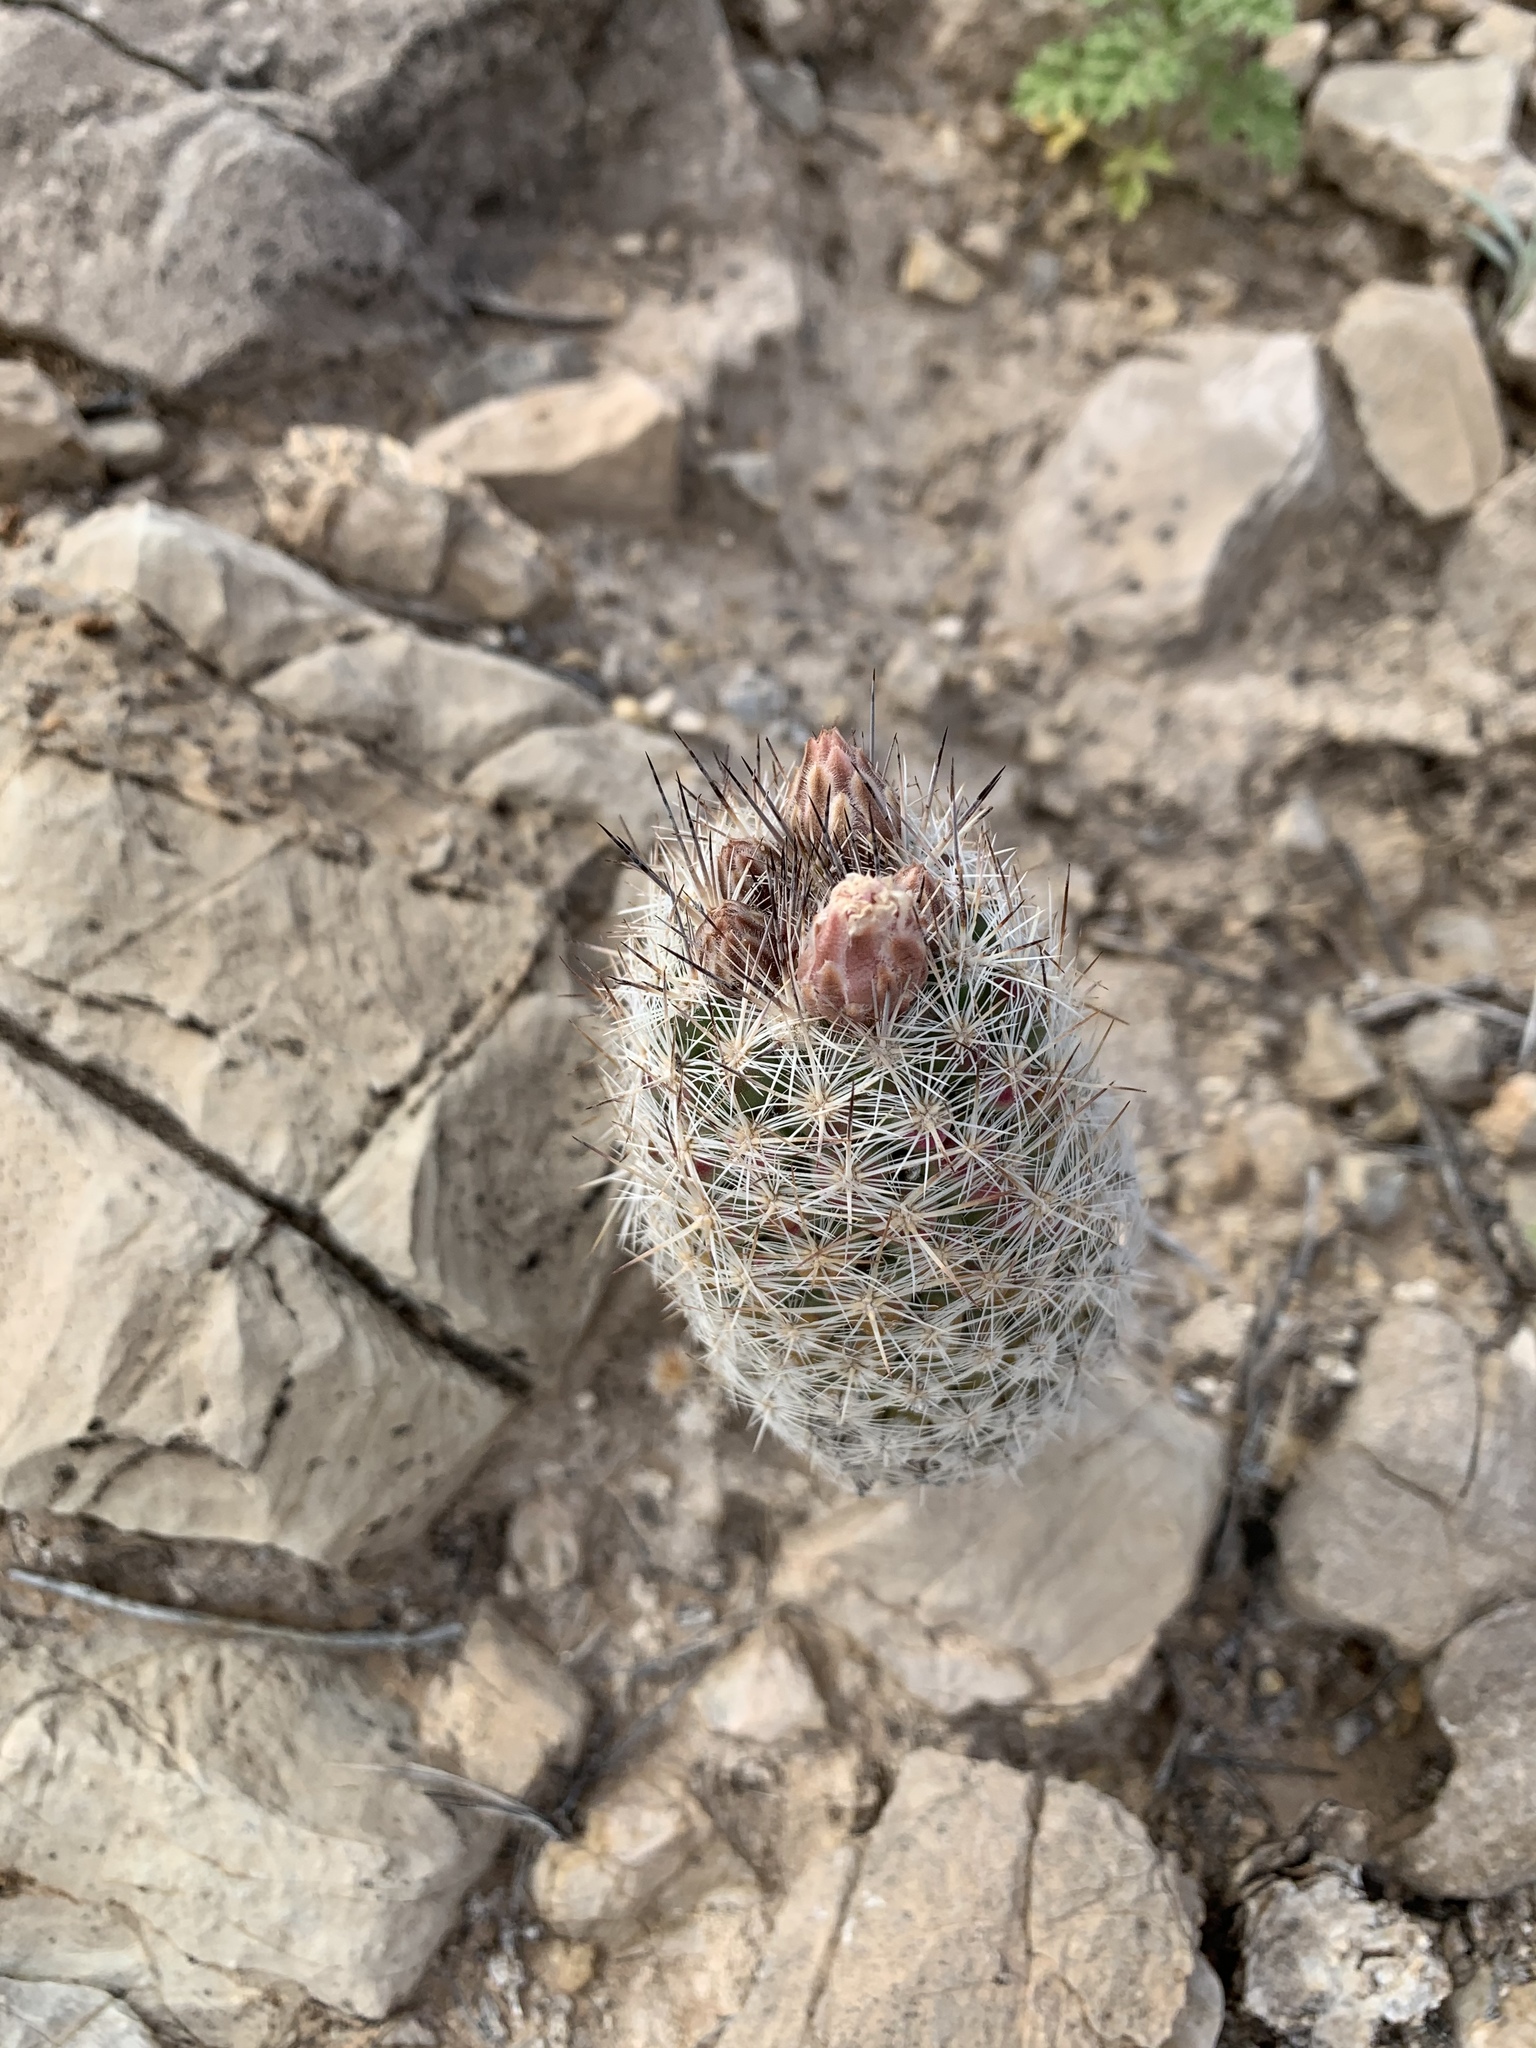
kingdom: Plantae
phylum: Tracheophyta
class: Magnoliopsida
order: Caryophyllales
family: Cactaceae
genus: Pelecyphora
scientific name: Pelecyphora tuberculosa
